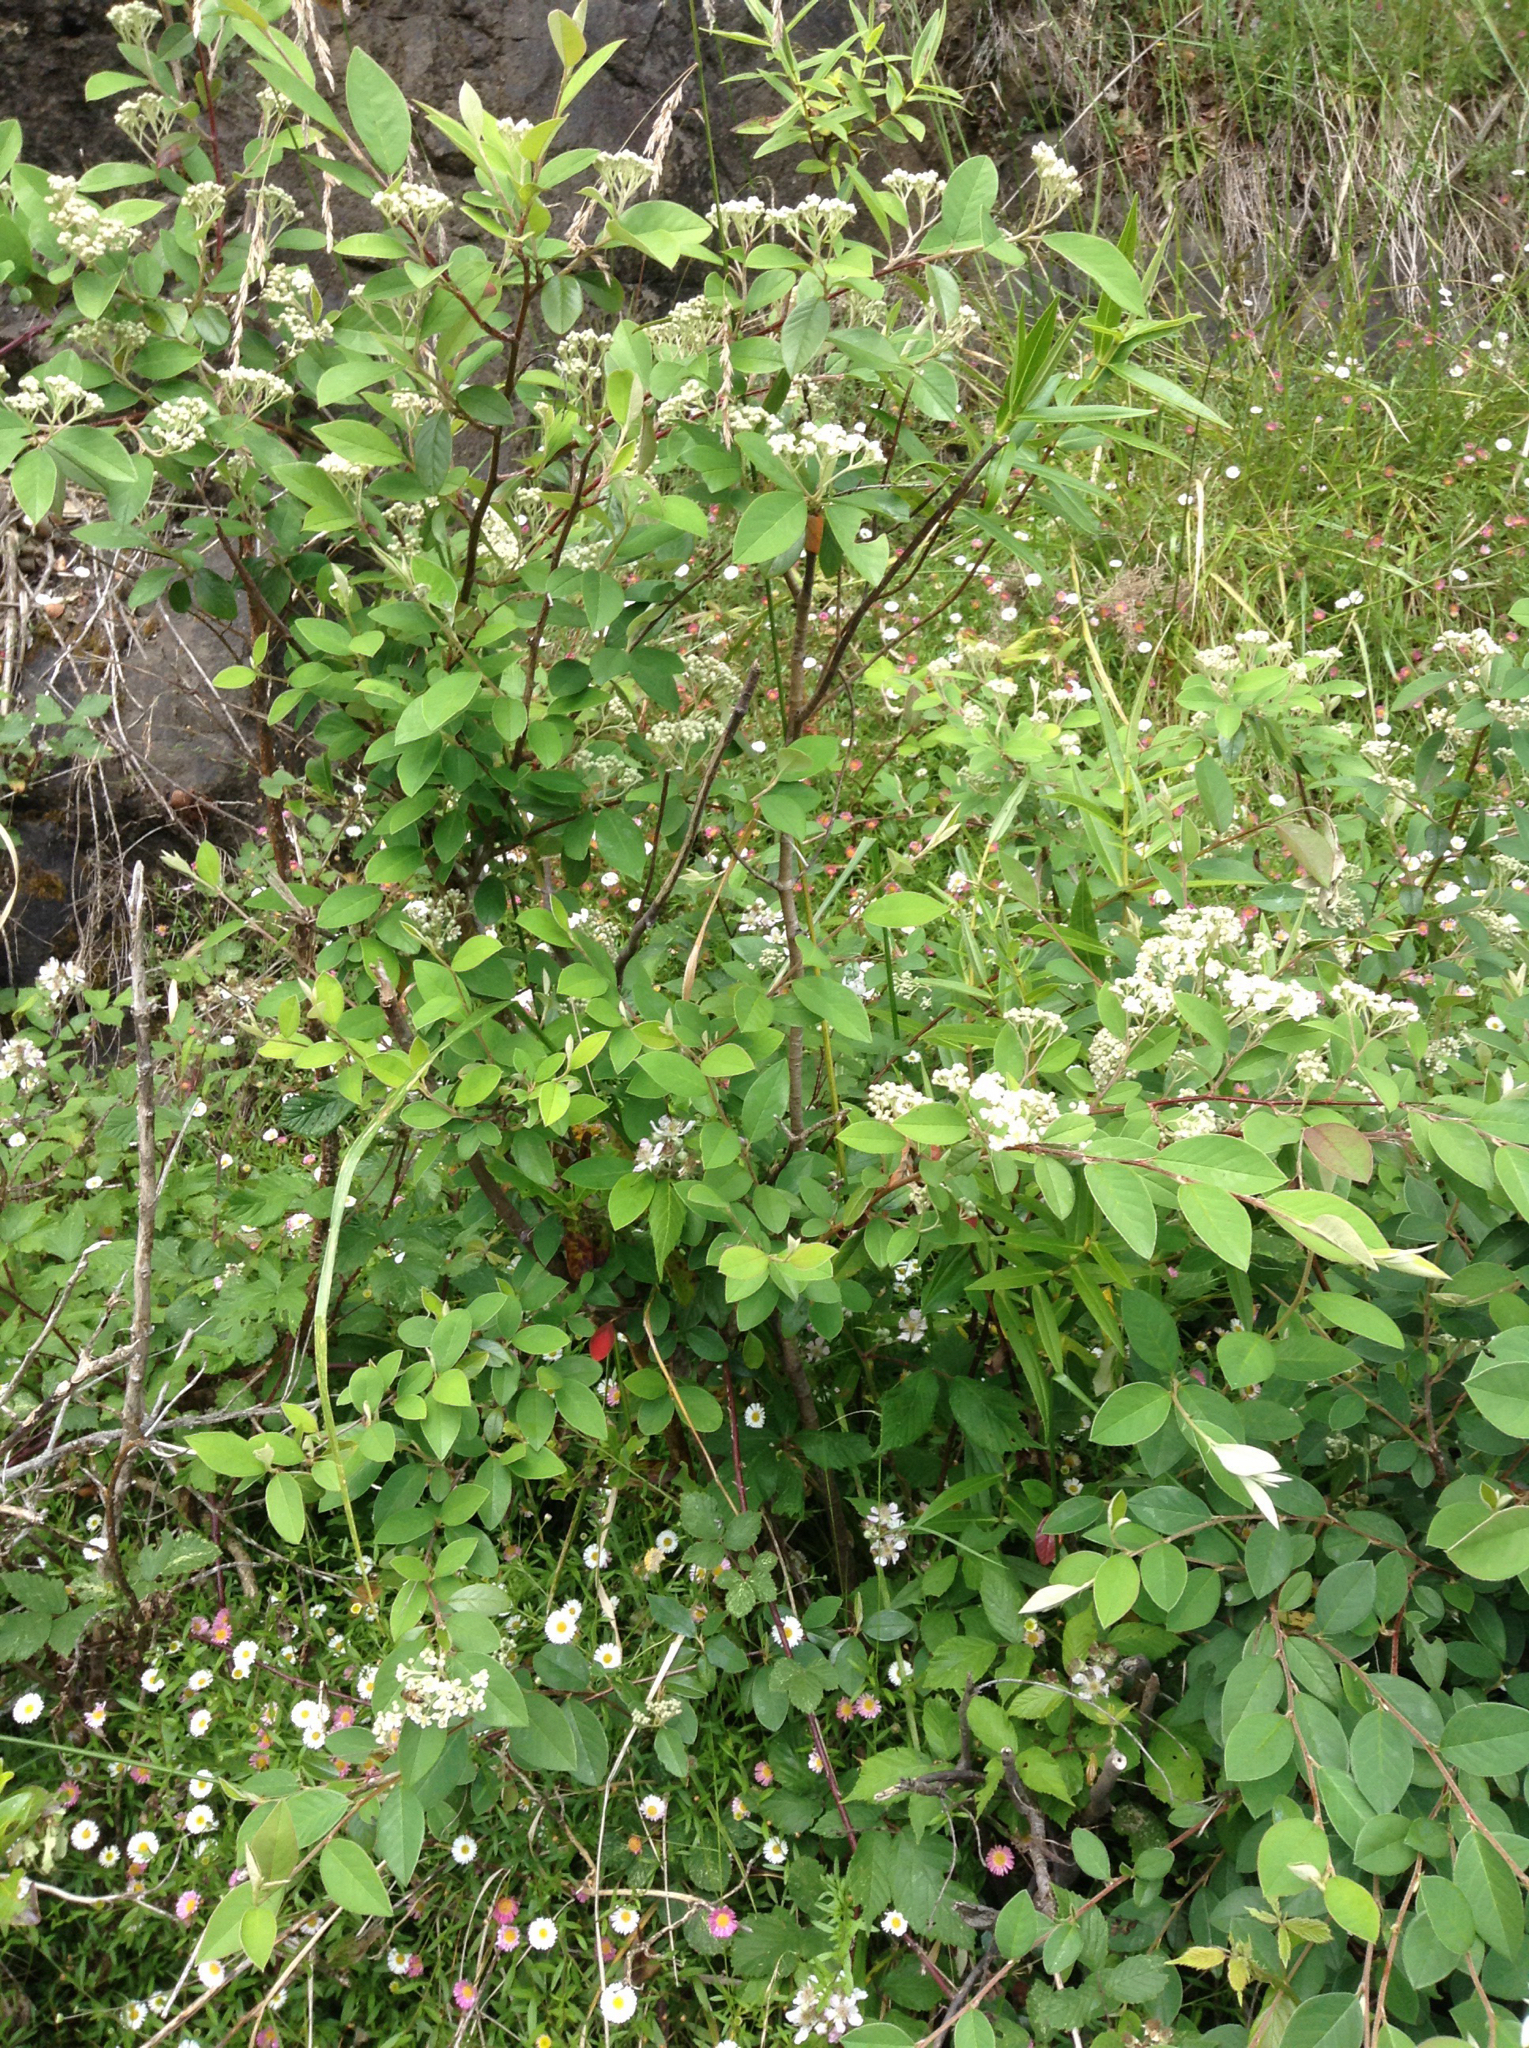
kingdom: Plantae
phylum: Tracheophyta
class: Magnoliopsida
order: Rosales
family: Rosaceae
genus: Cotoneaster
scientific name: Cotoneaster glaucophyllus
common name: Glaucous cotoneaster
